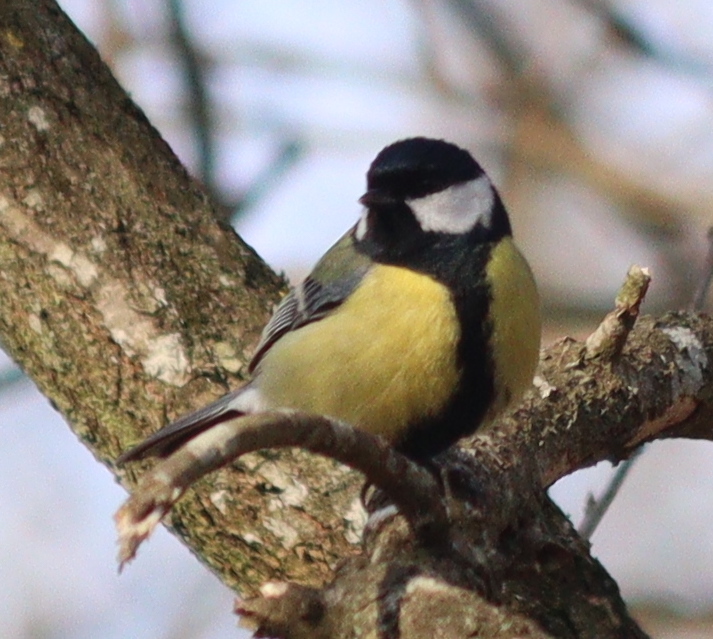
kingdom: Animalia
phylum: Chordata
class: Aves
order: Passeriformes
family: Paridae
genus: Parus
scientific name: Parus major
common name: Great tit
